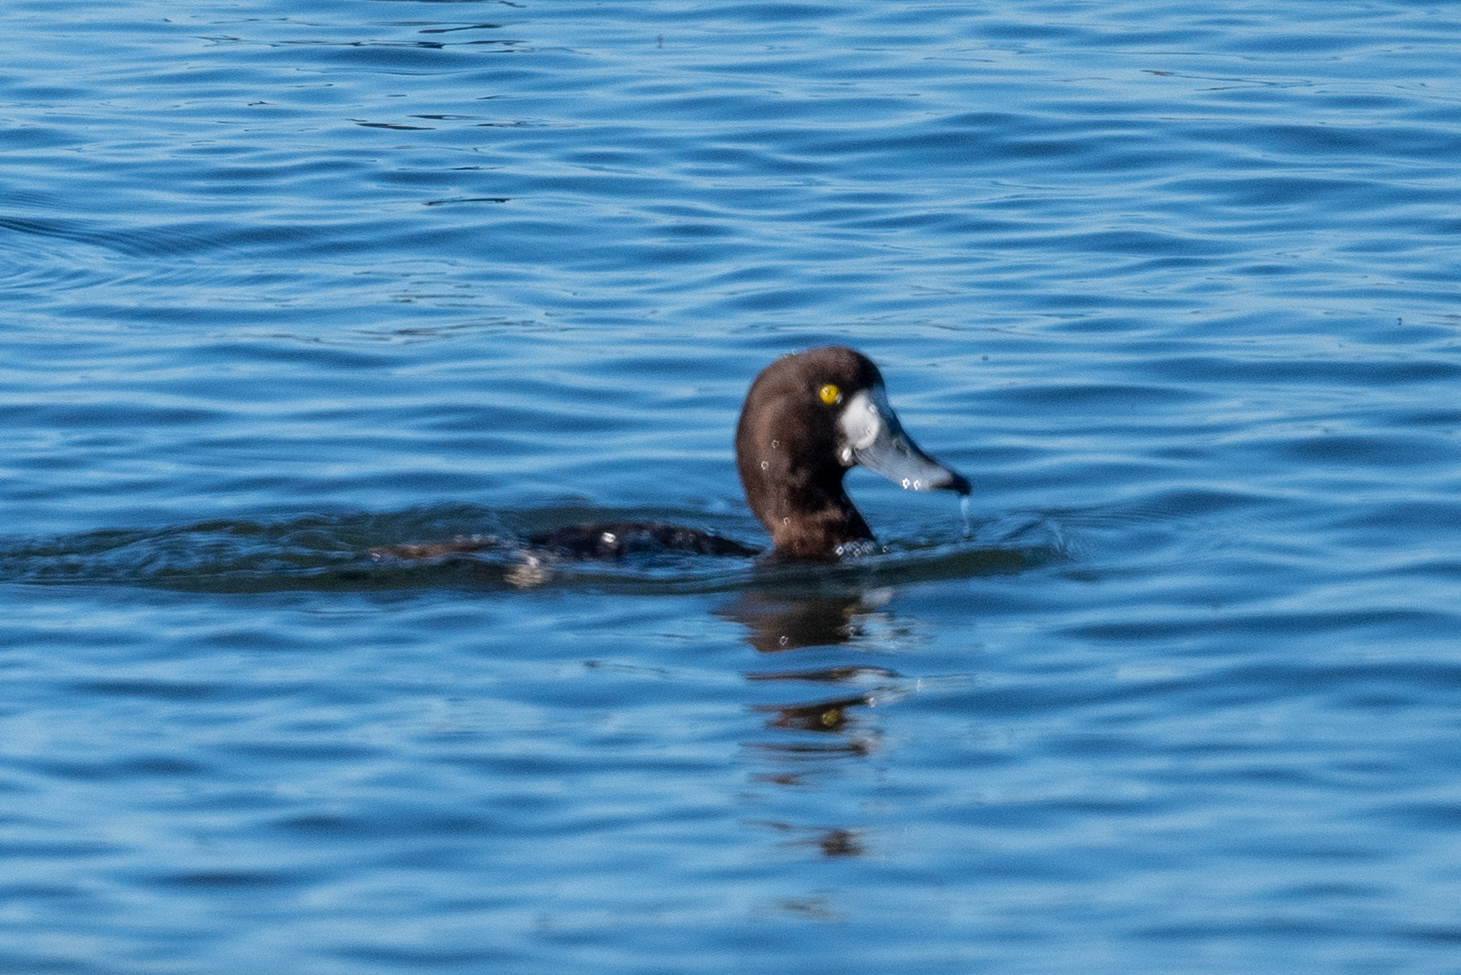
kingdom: Animalia
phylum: Chordata
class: Aves
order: Anseriformes
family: Anatidae
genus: Aythya
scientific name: Aythya marila
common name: Greater scaup
